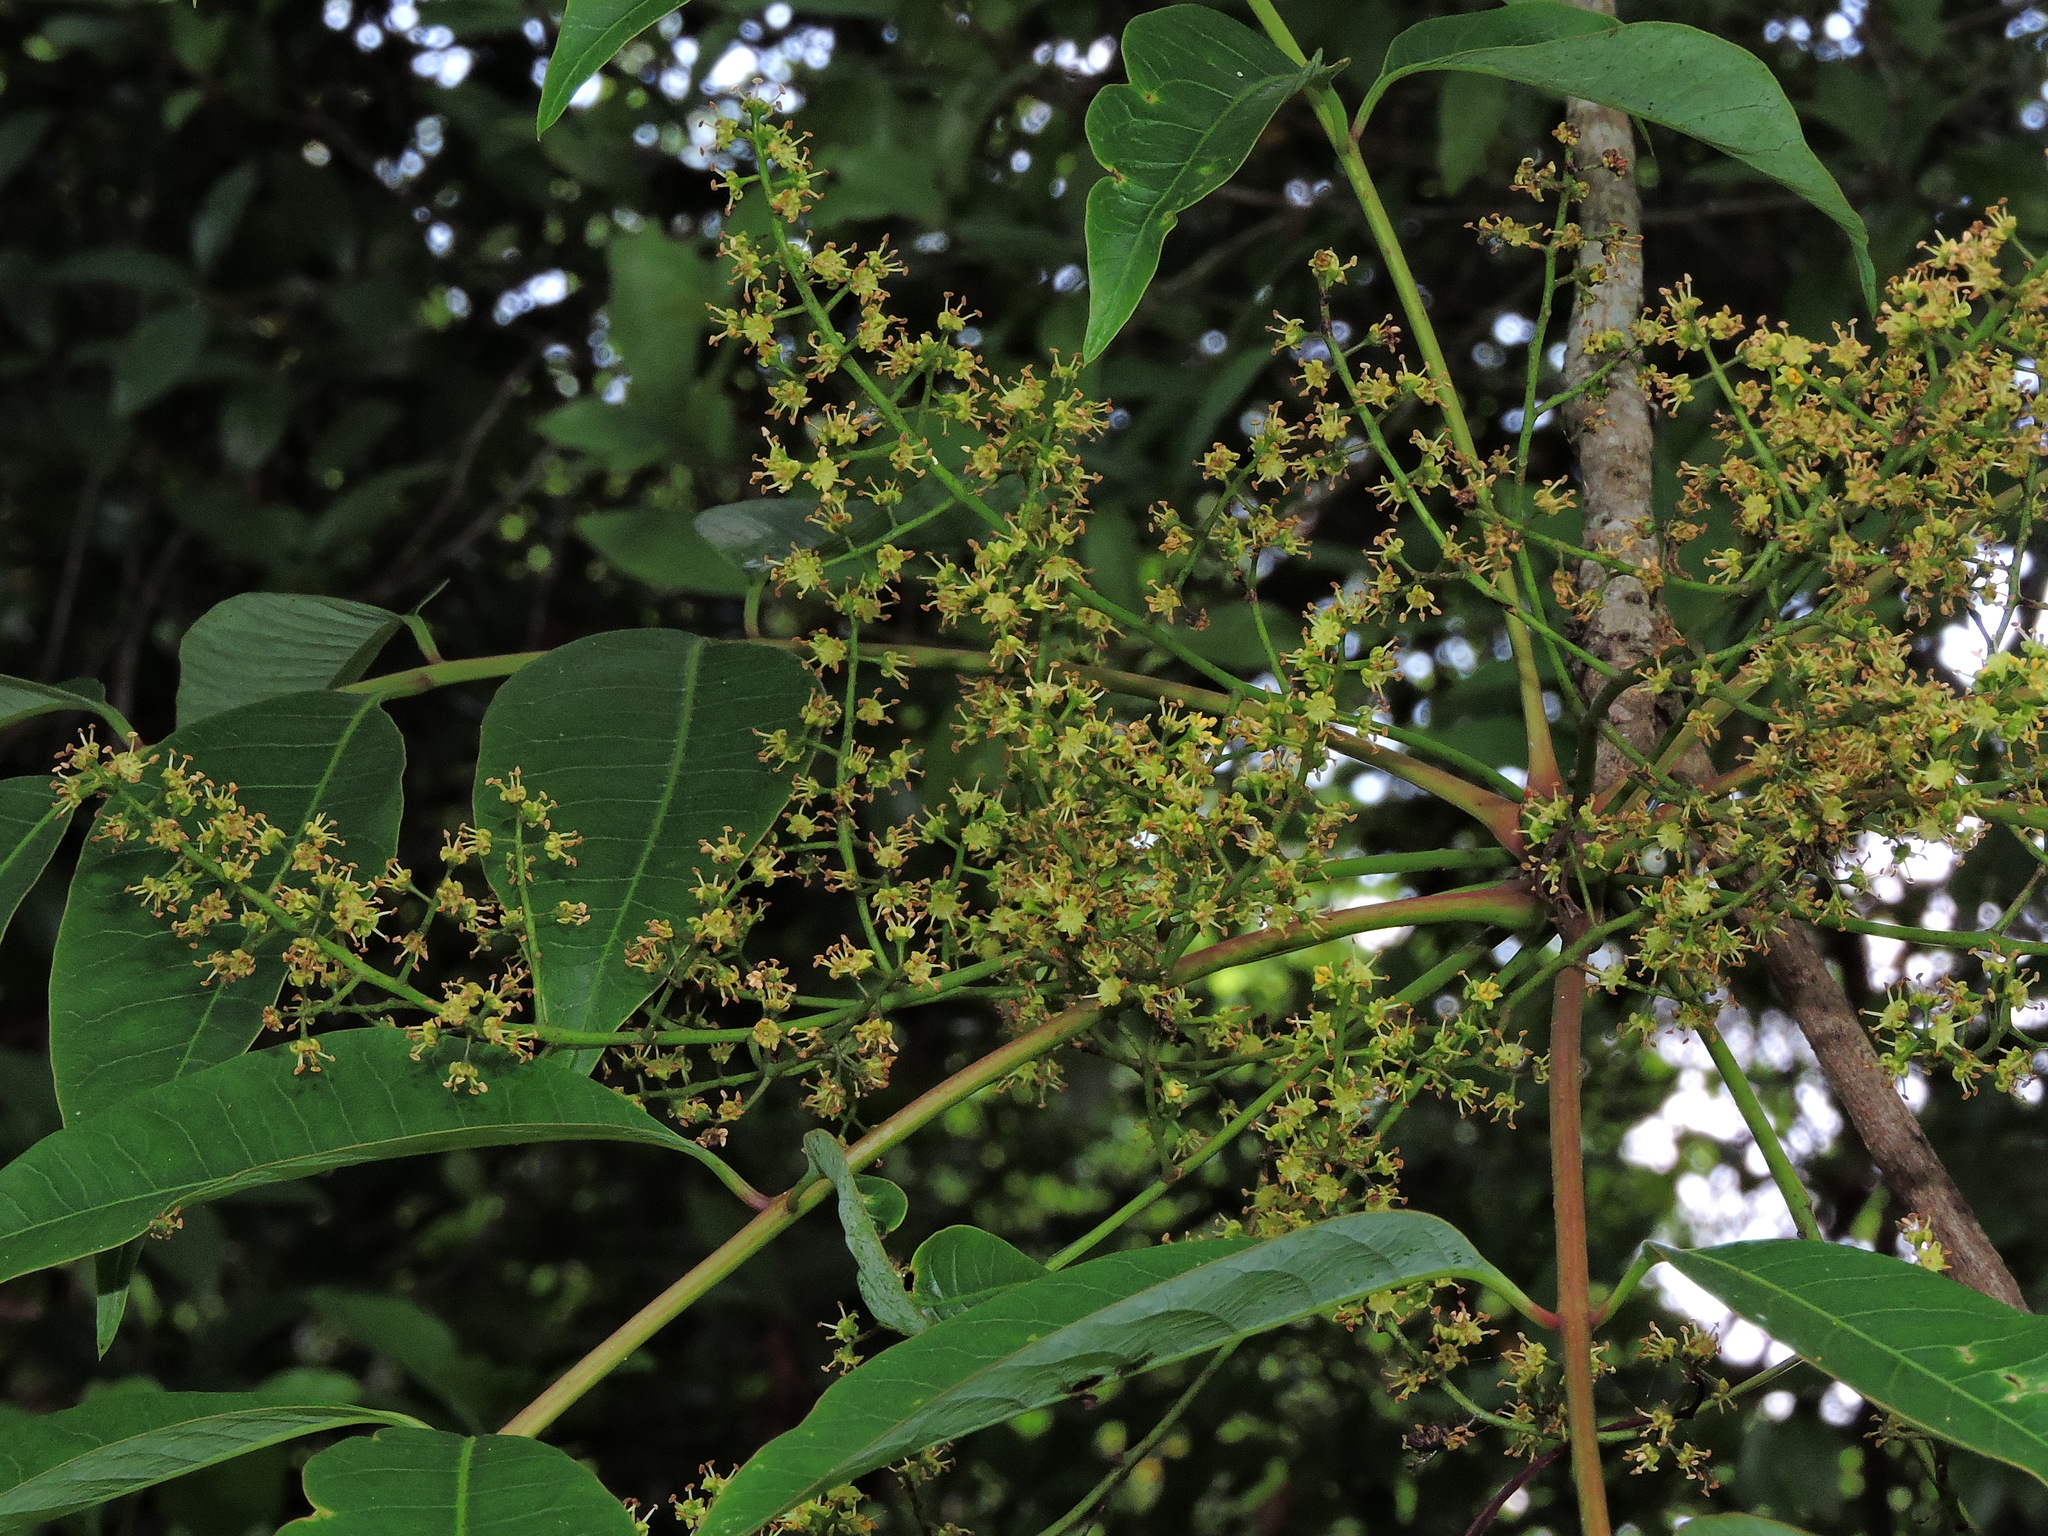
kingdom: Plantae
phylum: Tracheophyta
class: Magnoliopsida
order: Sapindales
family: Anacardiaceae
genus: Toxicodendron
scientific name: Toxicodendron succedaneum
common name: Wax tree
